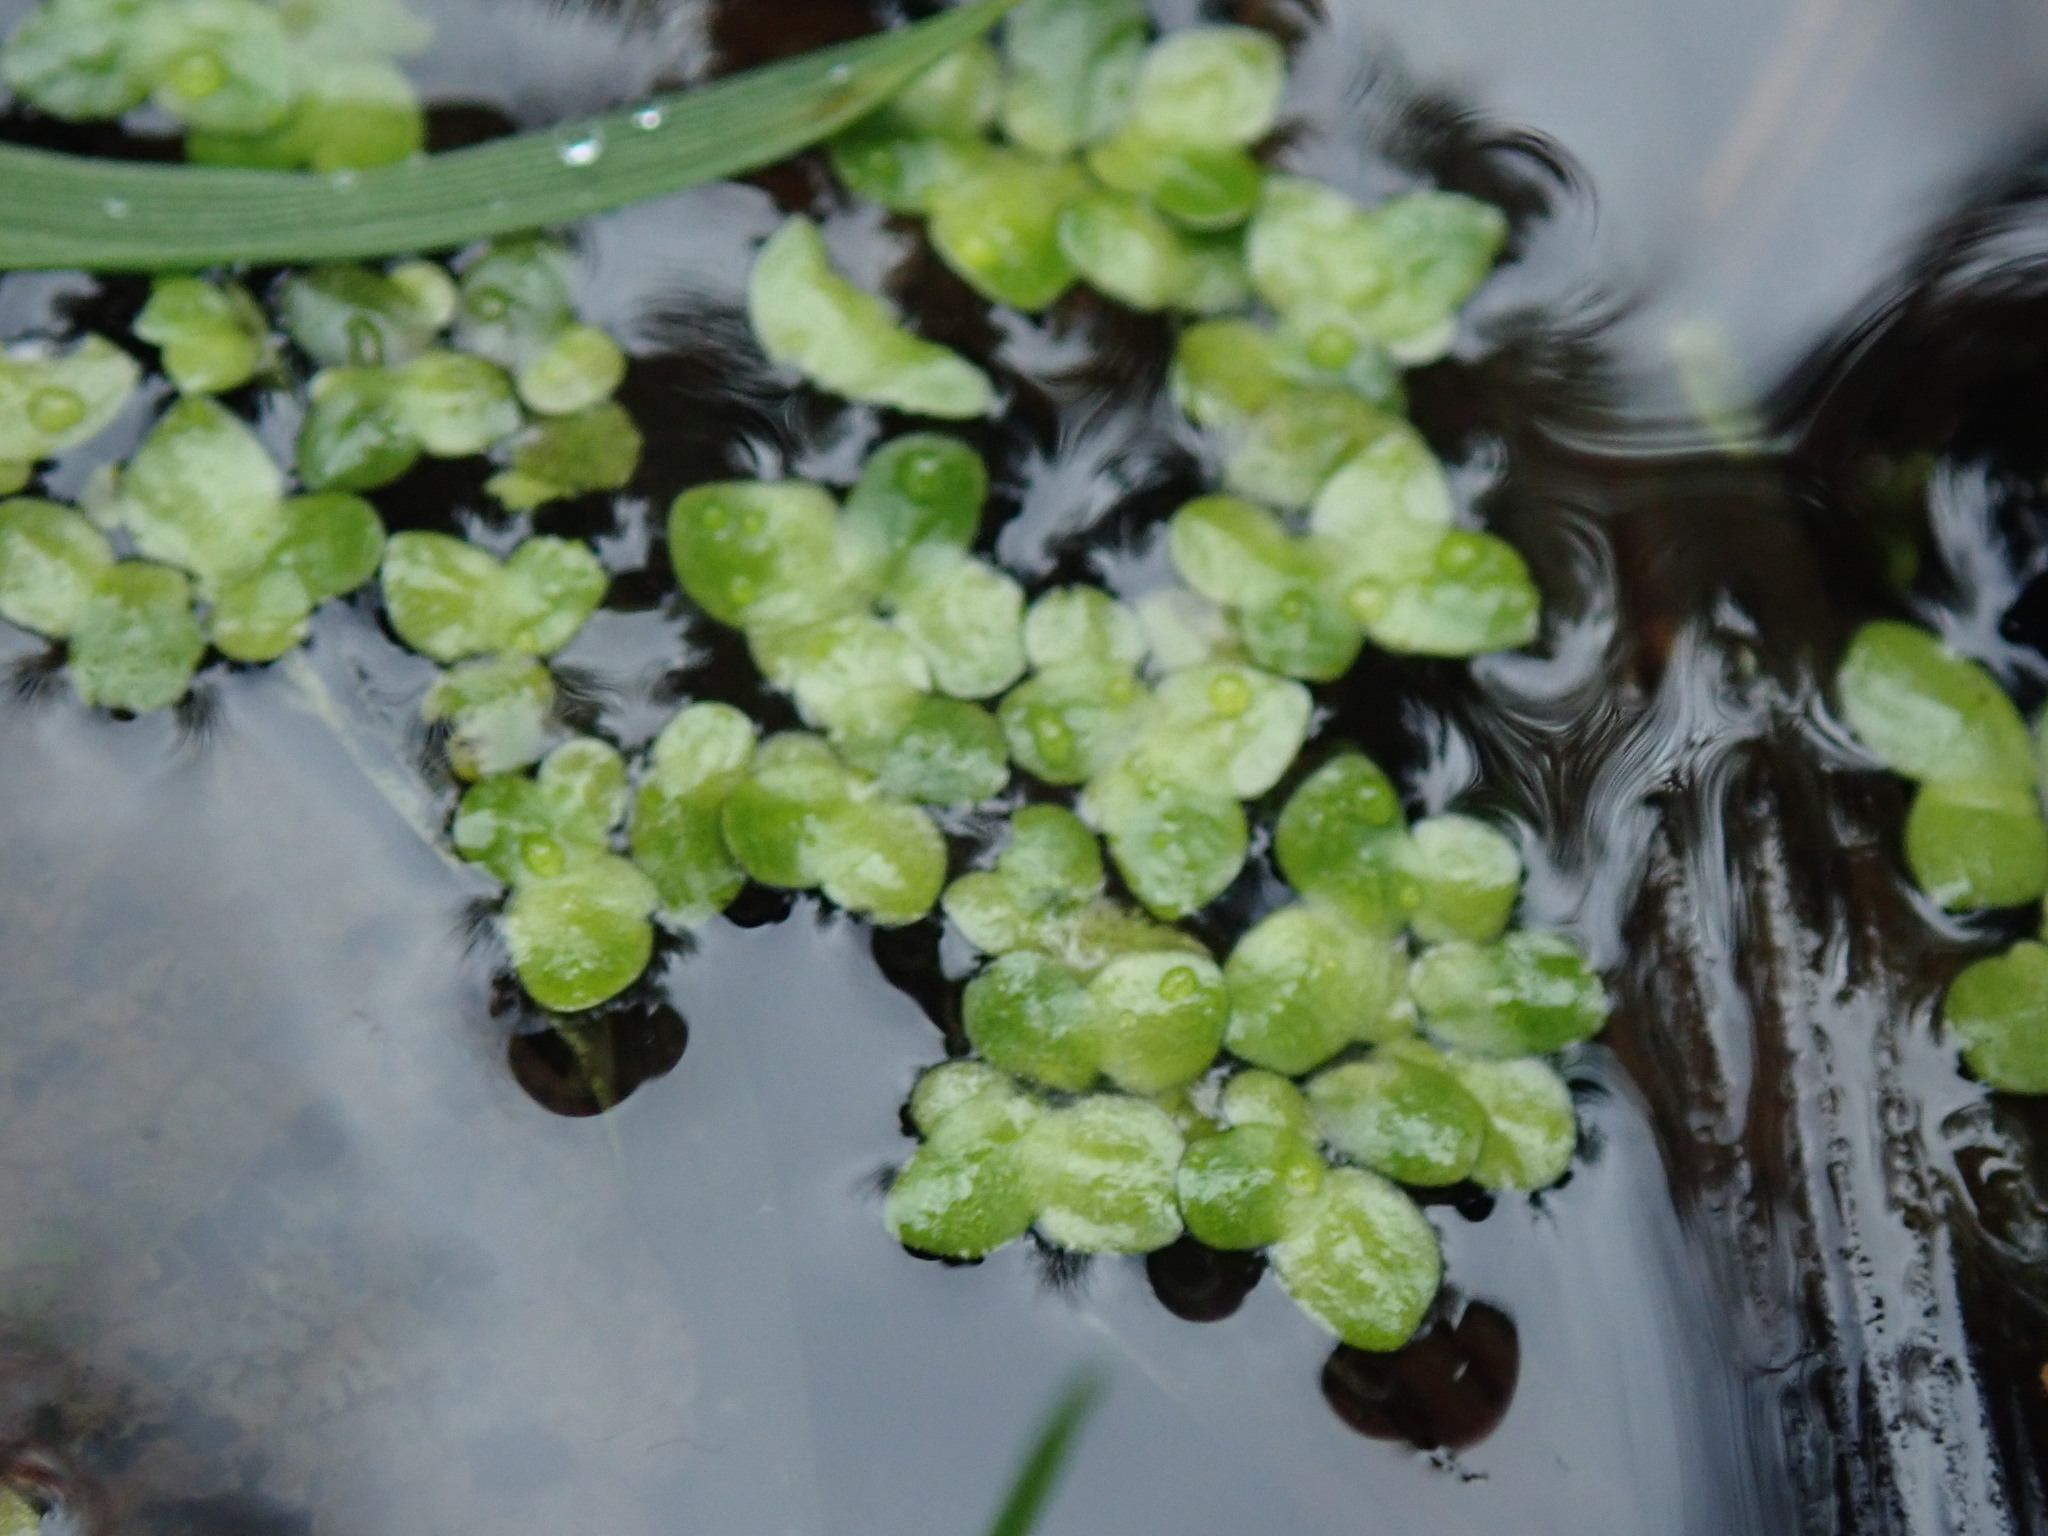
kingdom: Plantae
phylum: Tracheophyta
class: Liliopsida
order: Alismatales
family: Araceae
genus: Lemna
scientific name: Lemna minor
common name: Common duckweed
